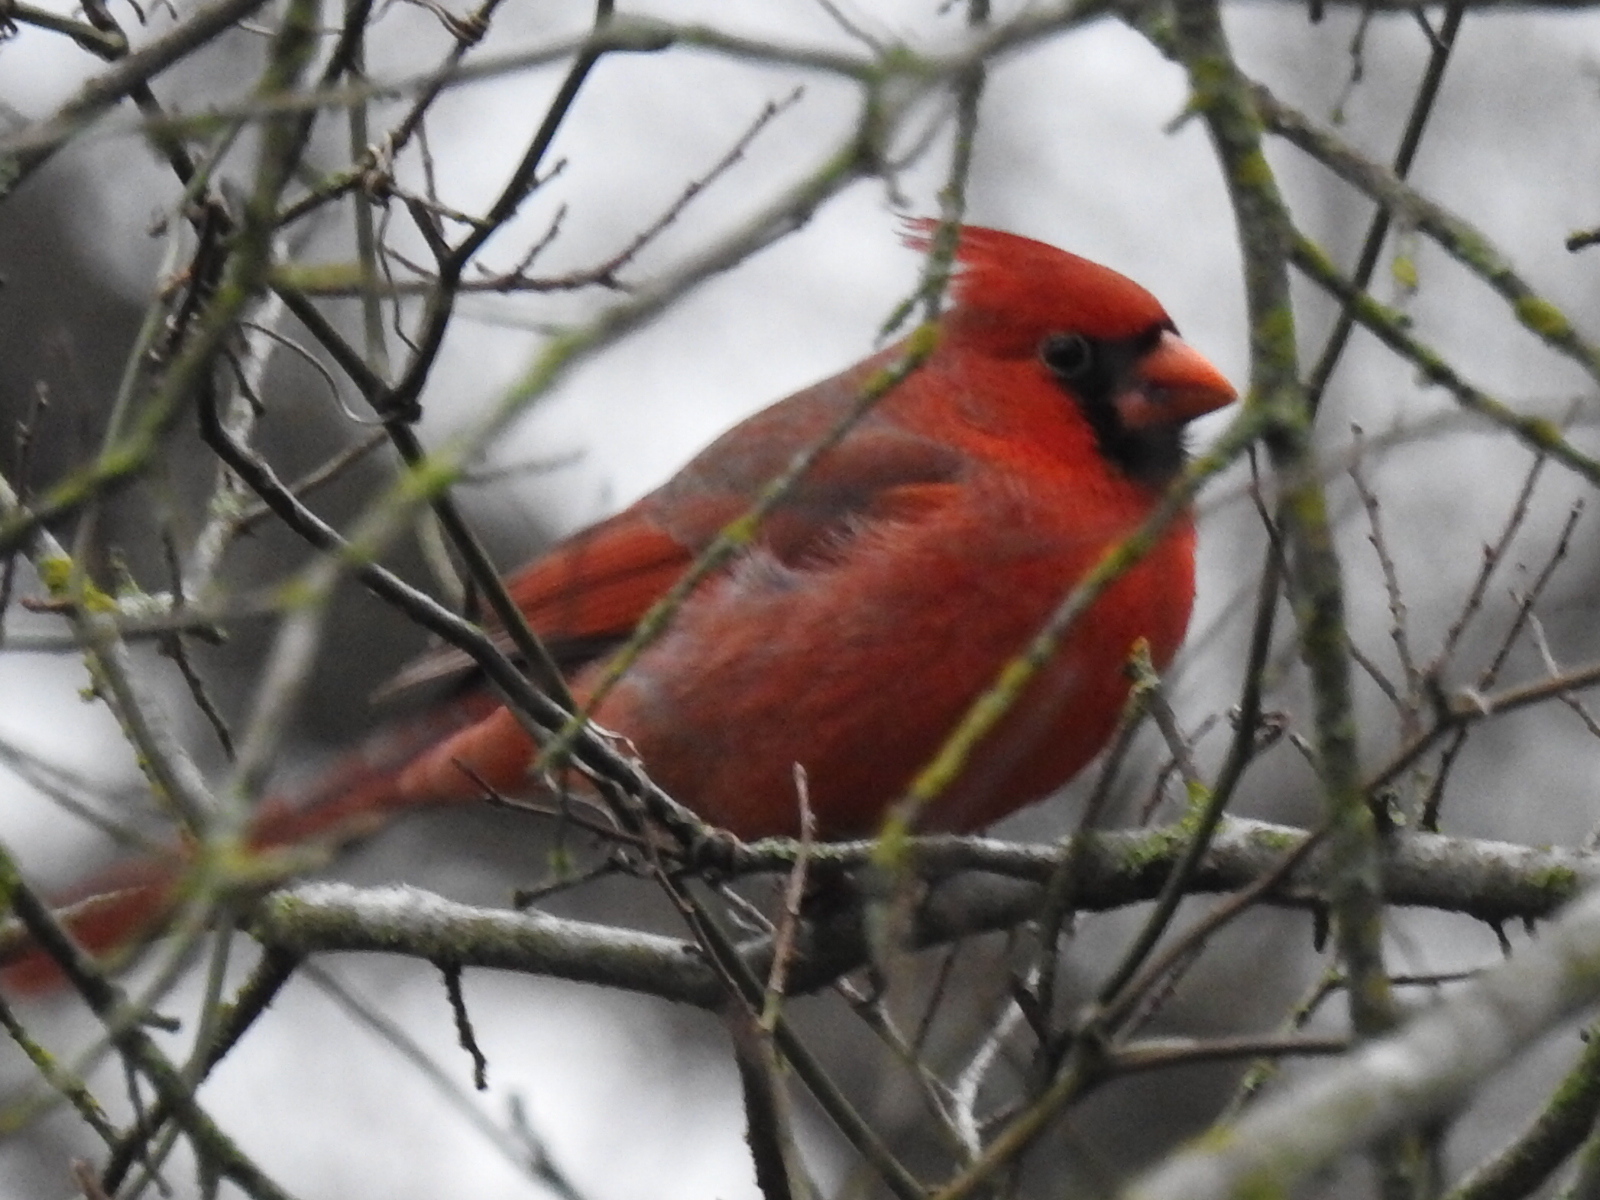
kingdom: Animalia
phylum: Chordata
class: Aves
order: Passeriformes
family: Cardinalidae
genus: Cardinalis
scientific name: Cardinalis cardinalis
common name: Northern cardinal
